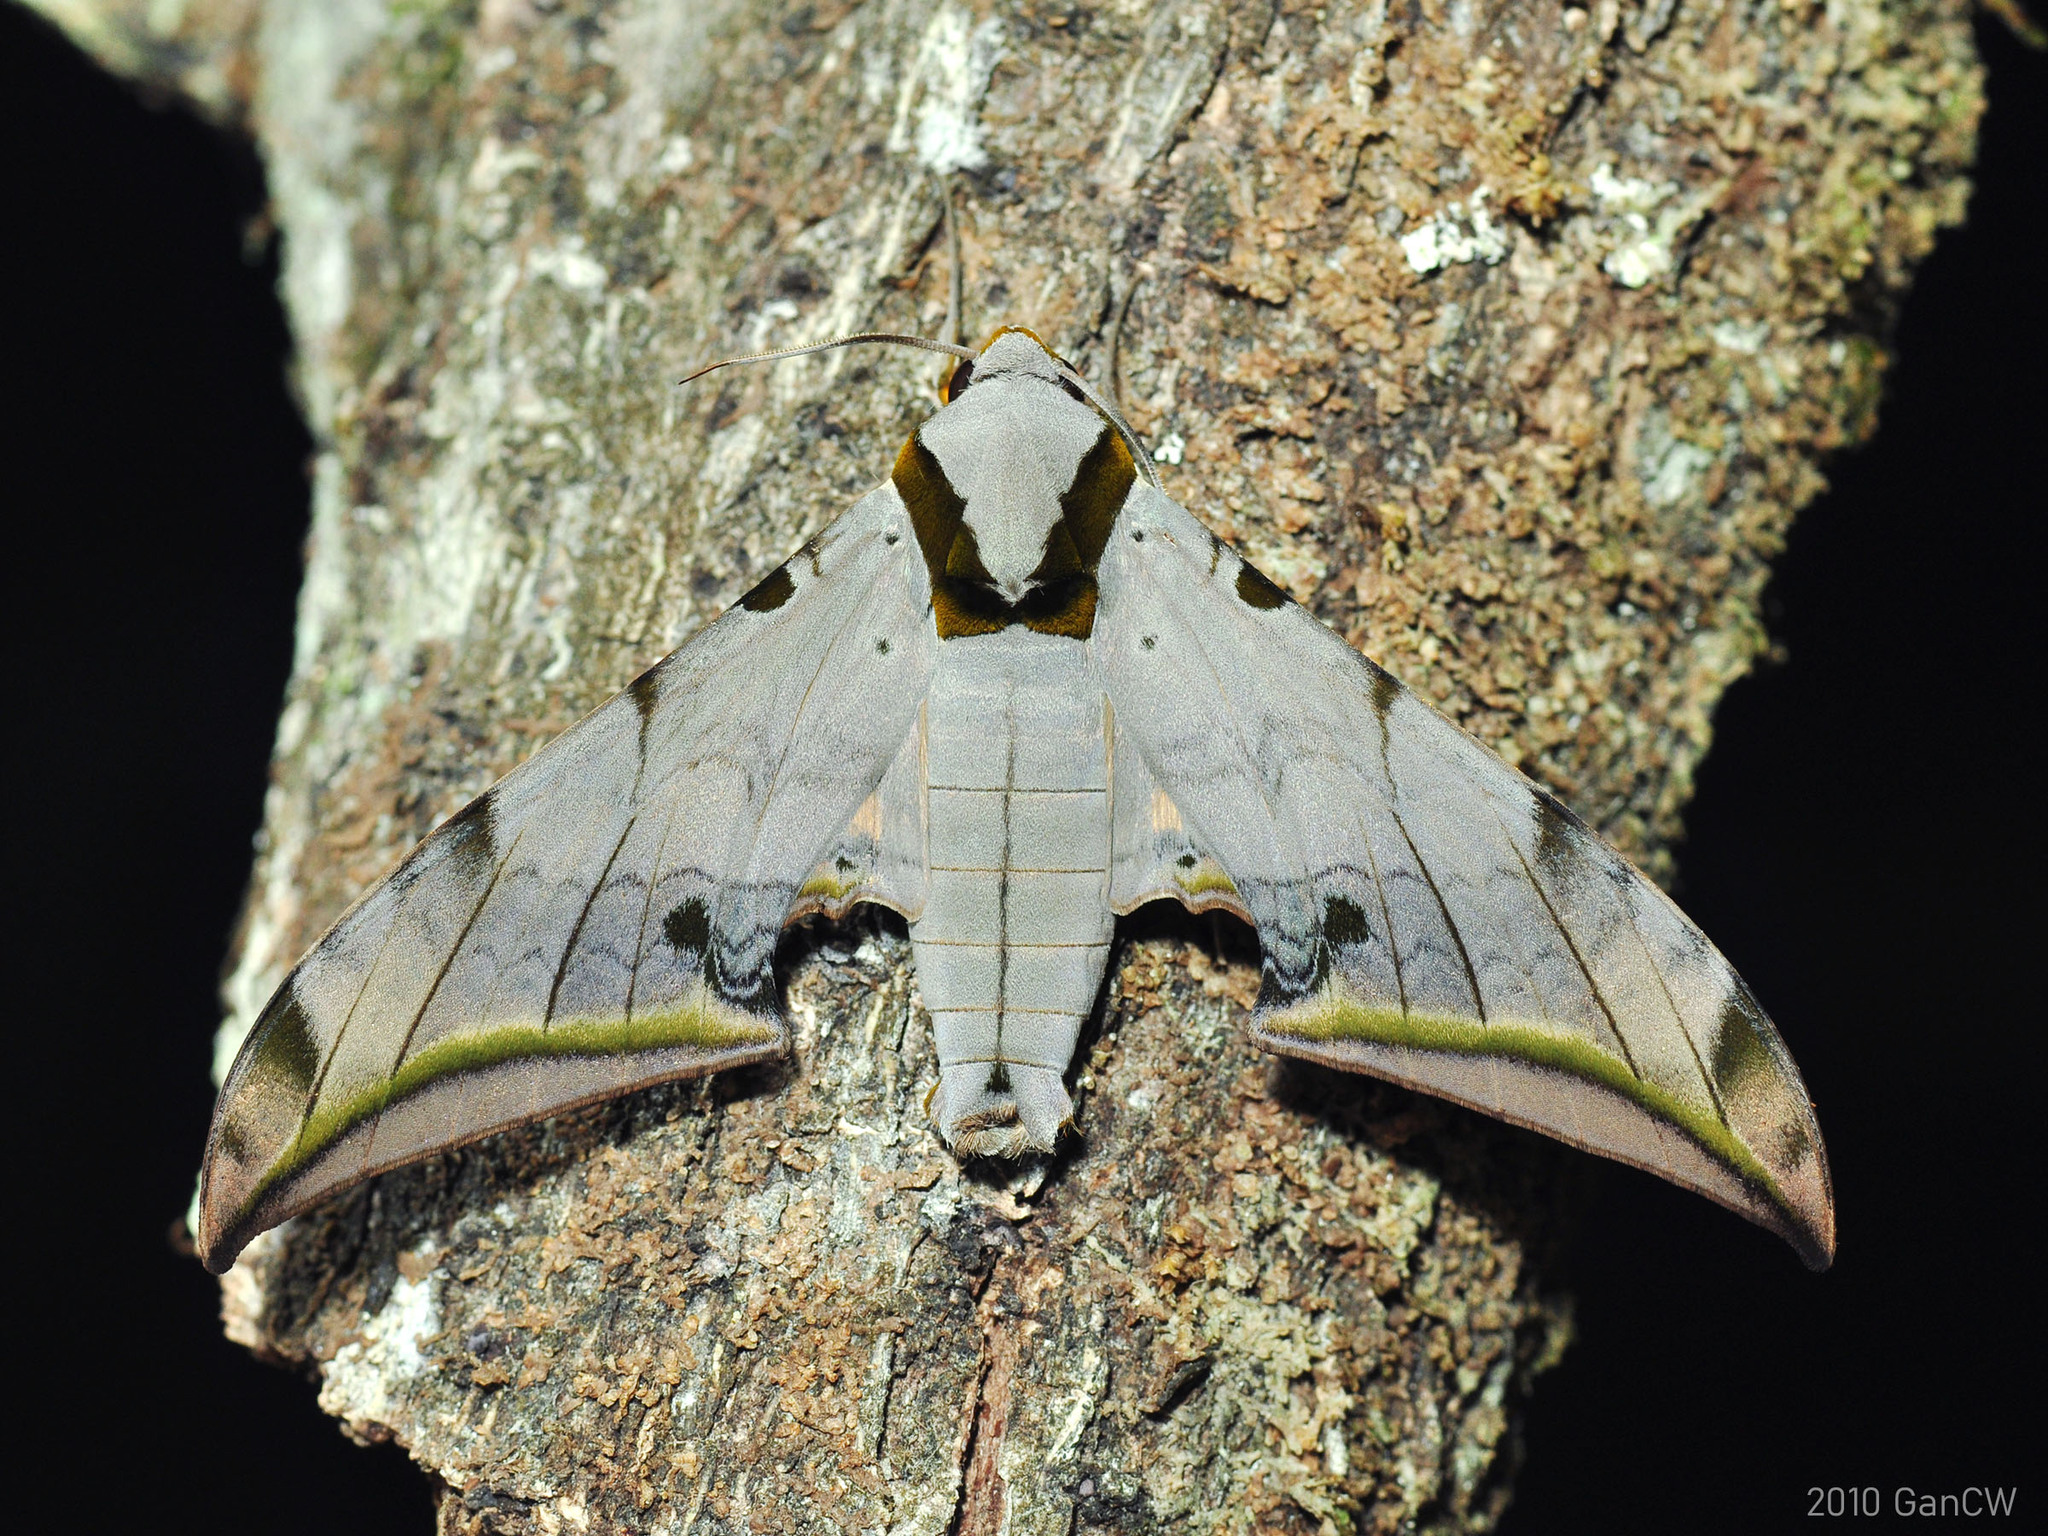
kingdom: Animalia
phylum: Arthropoda
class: Insecta
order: Lepidoptera
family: Sphingidae
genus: Ambulyx
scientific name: Ambulyx sericeipennis
